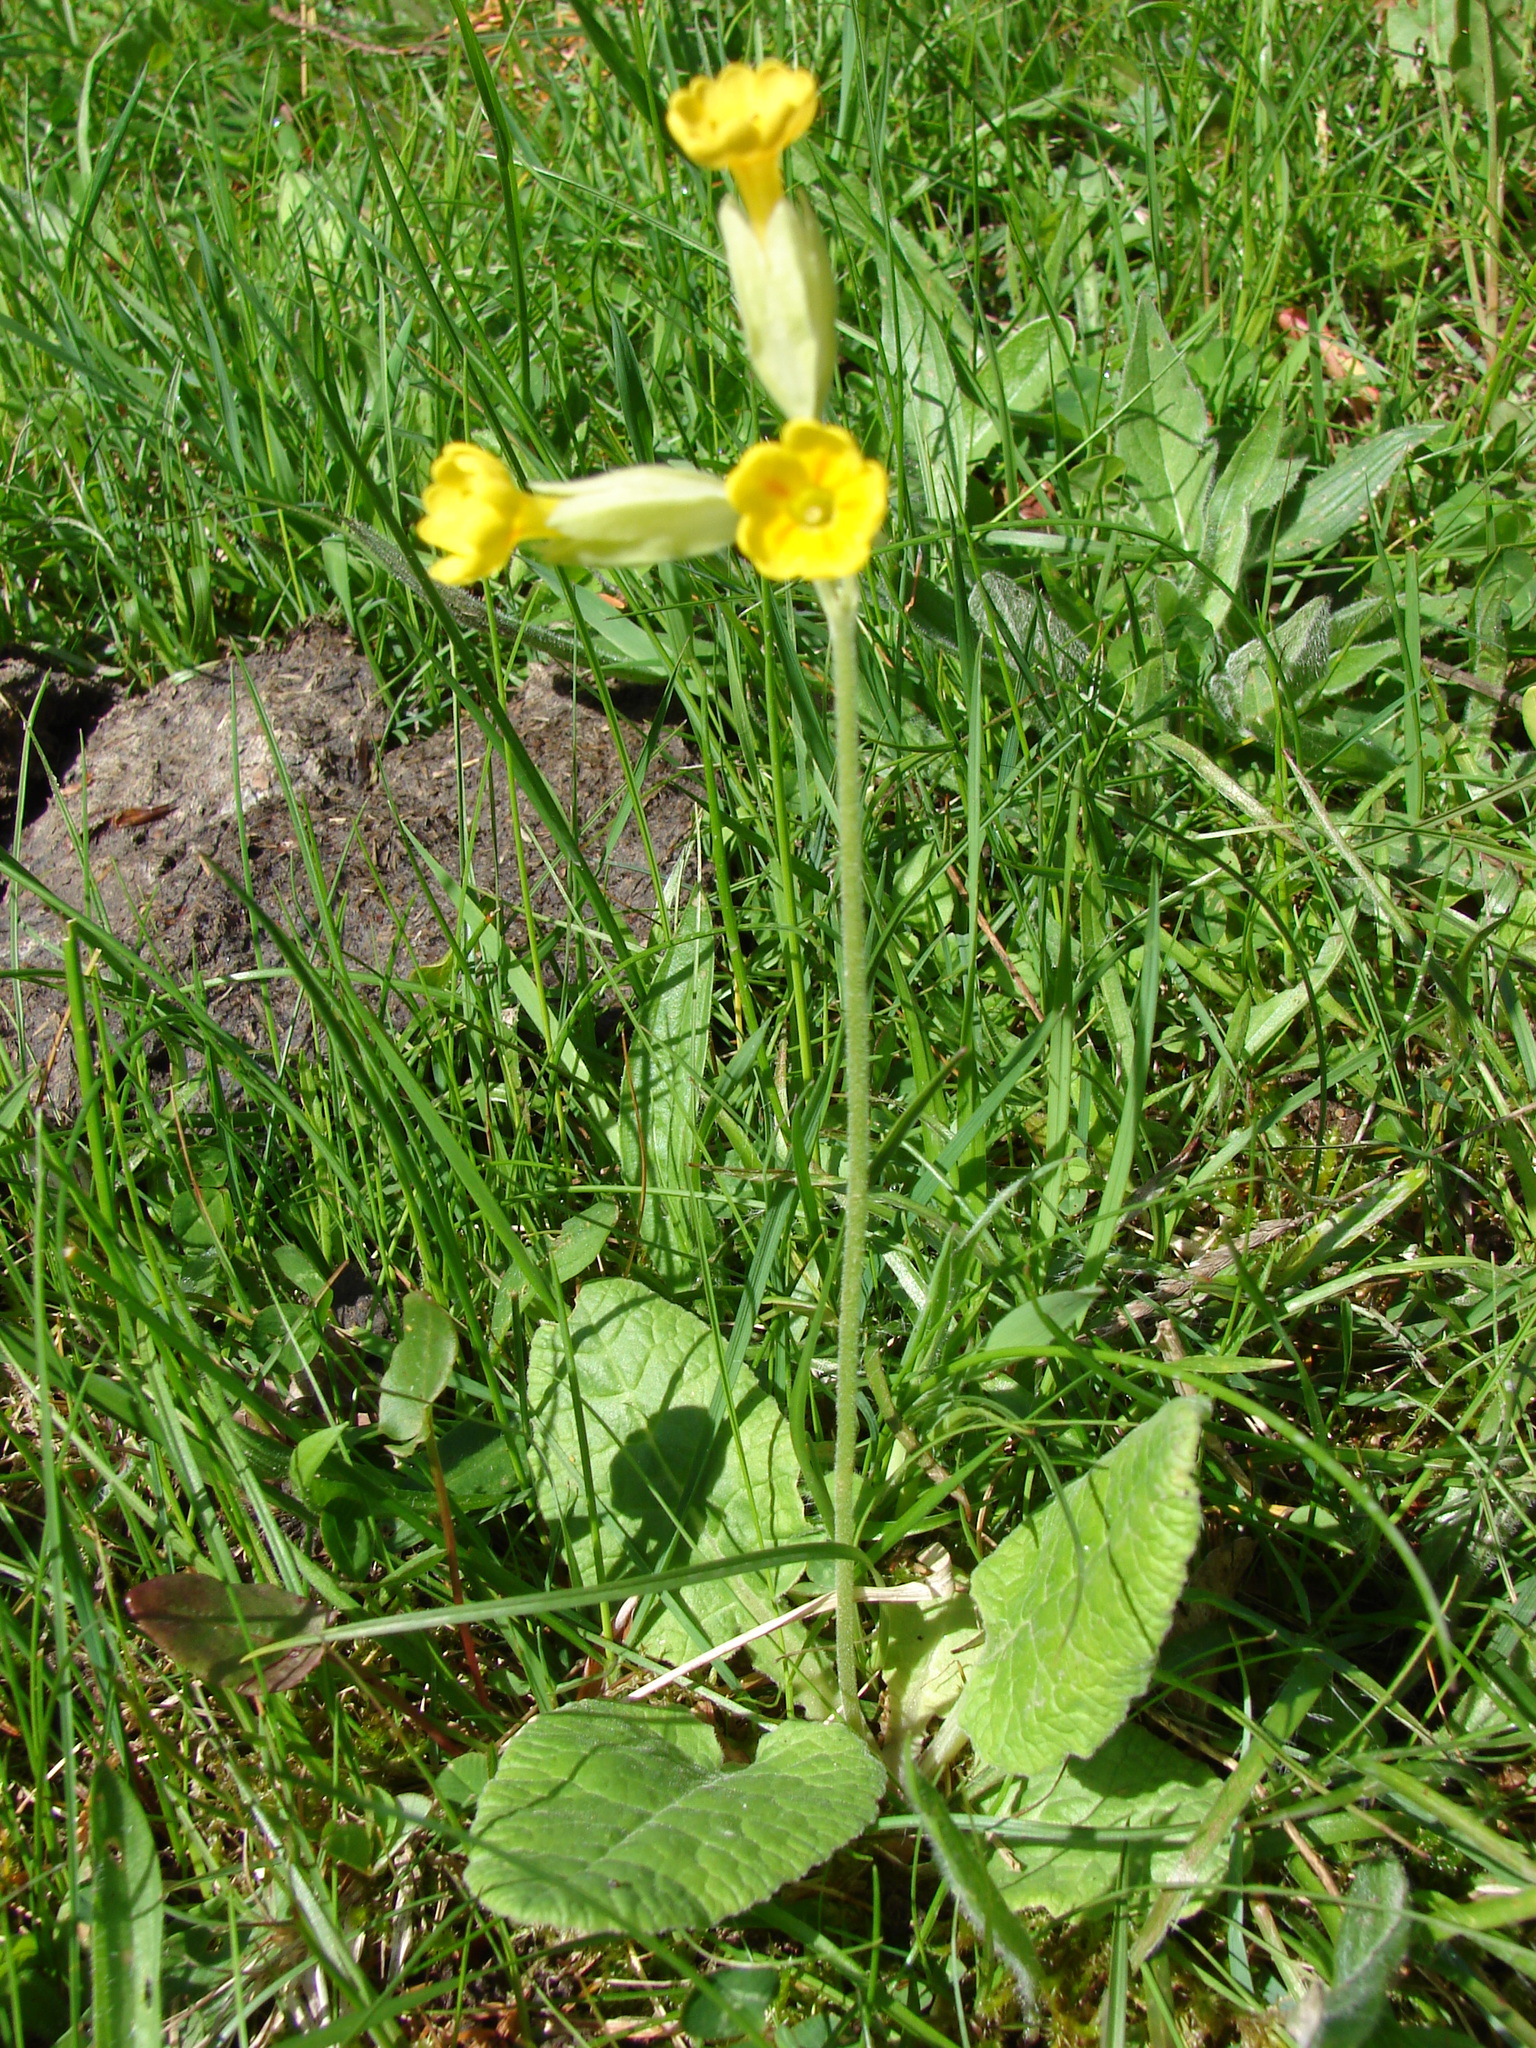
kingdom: Plantae
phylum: Tracheophyta
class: Magnoliopsida
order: Ericales
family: Primulaceae
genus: Primula
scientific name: Primula veris
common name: Cowslip
